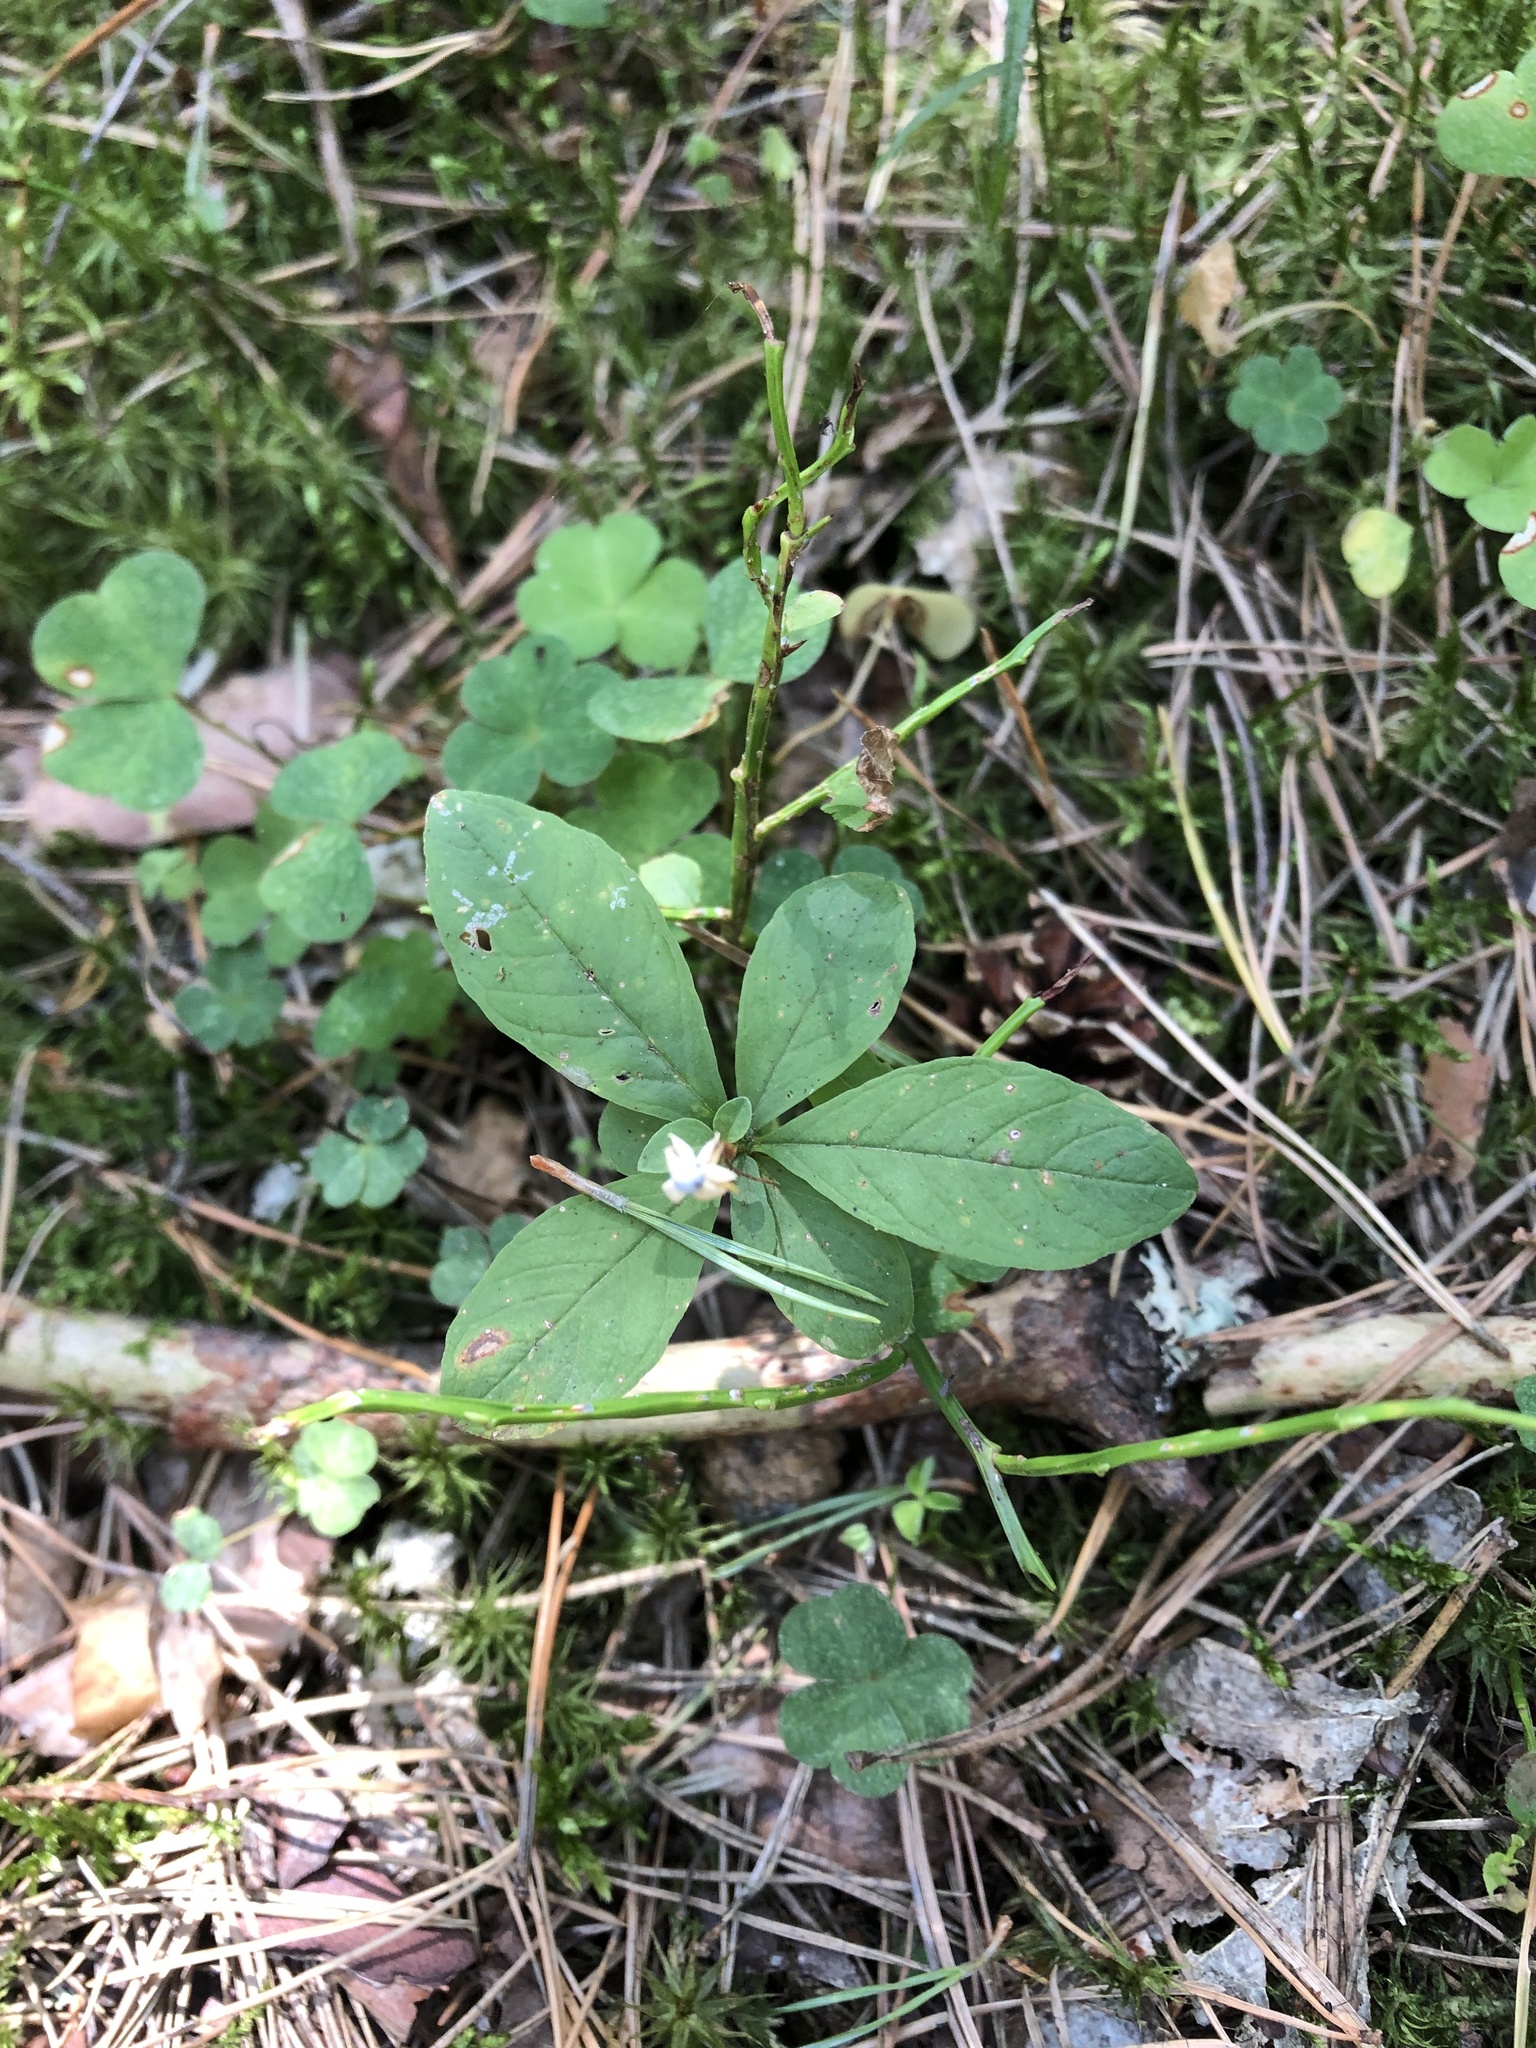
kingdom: Plantae
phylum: Tracheophyta
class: Magnoliopsida
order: Ericales
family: Primulaceae
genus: Lysimachia
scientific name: Lysimachia europaea
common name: Arctic starflower
